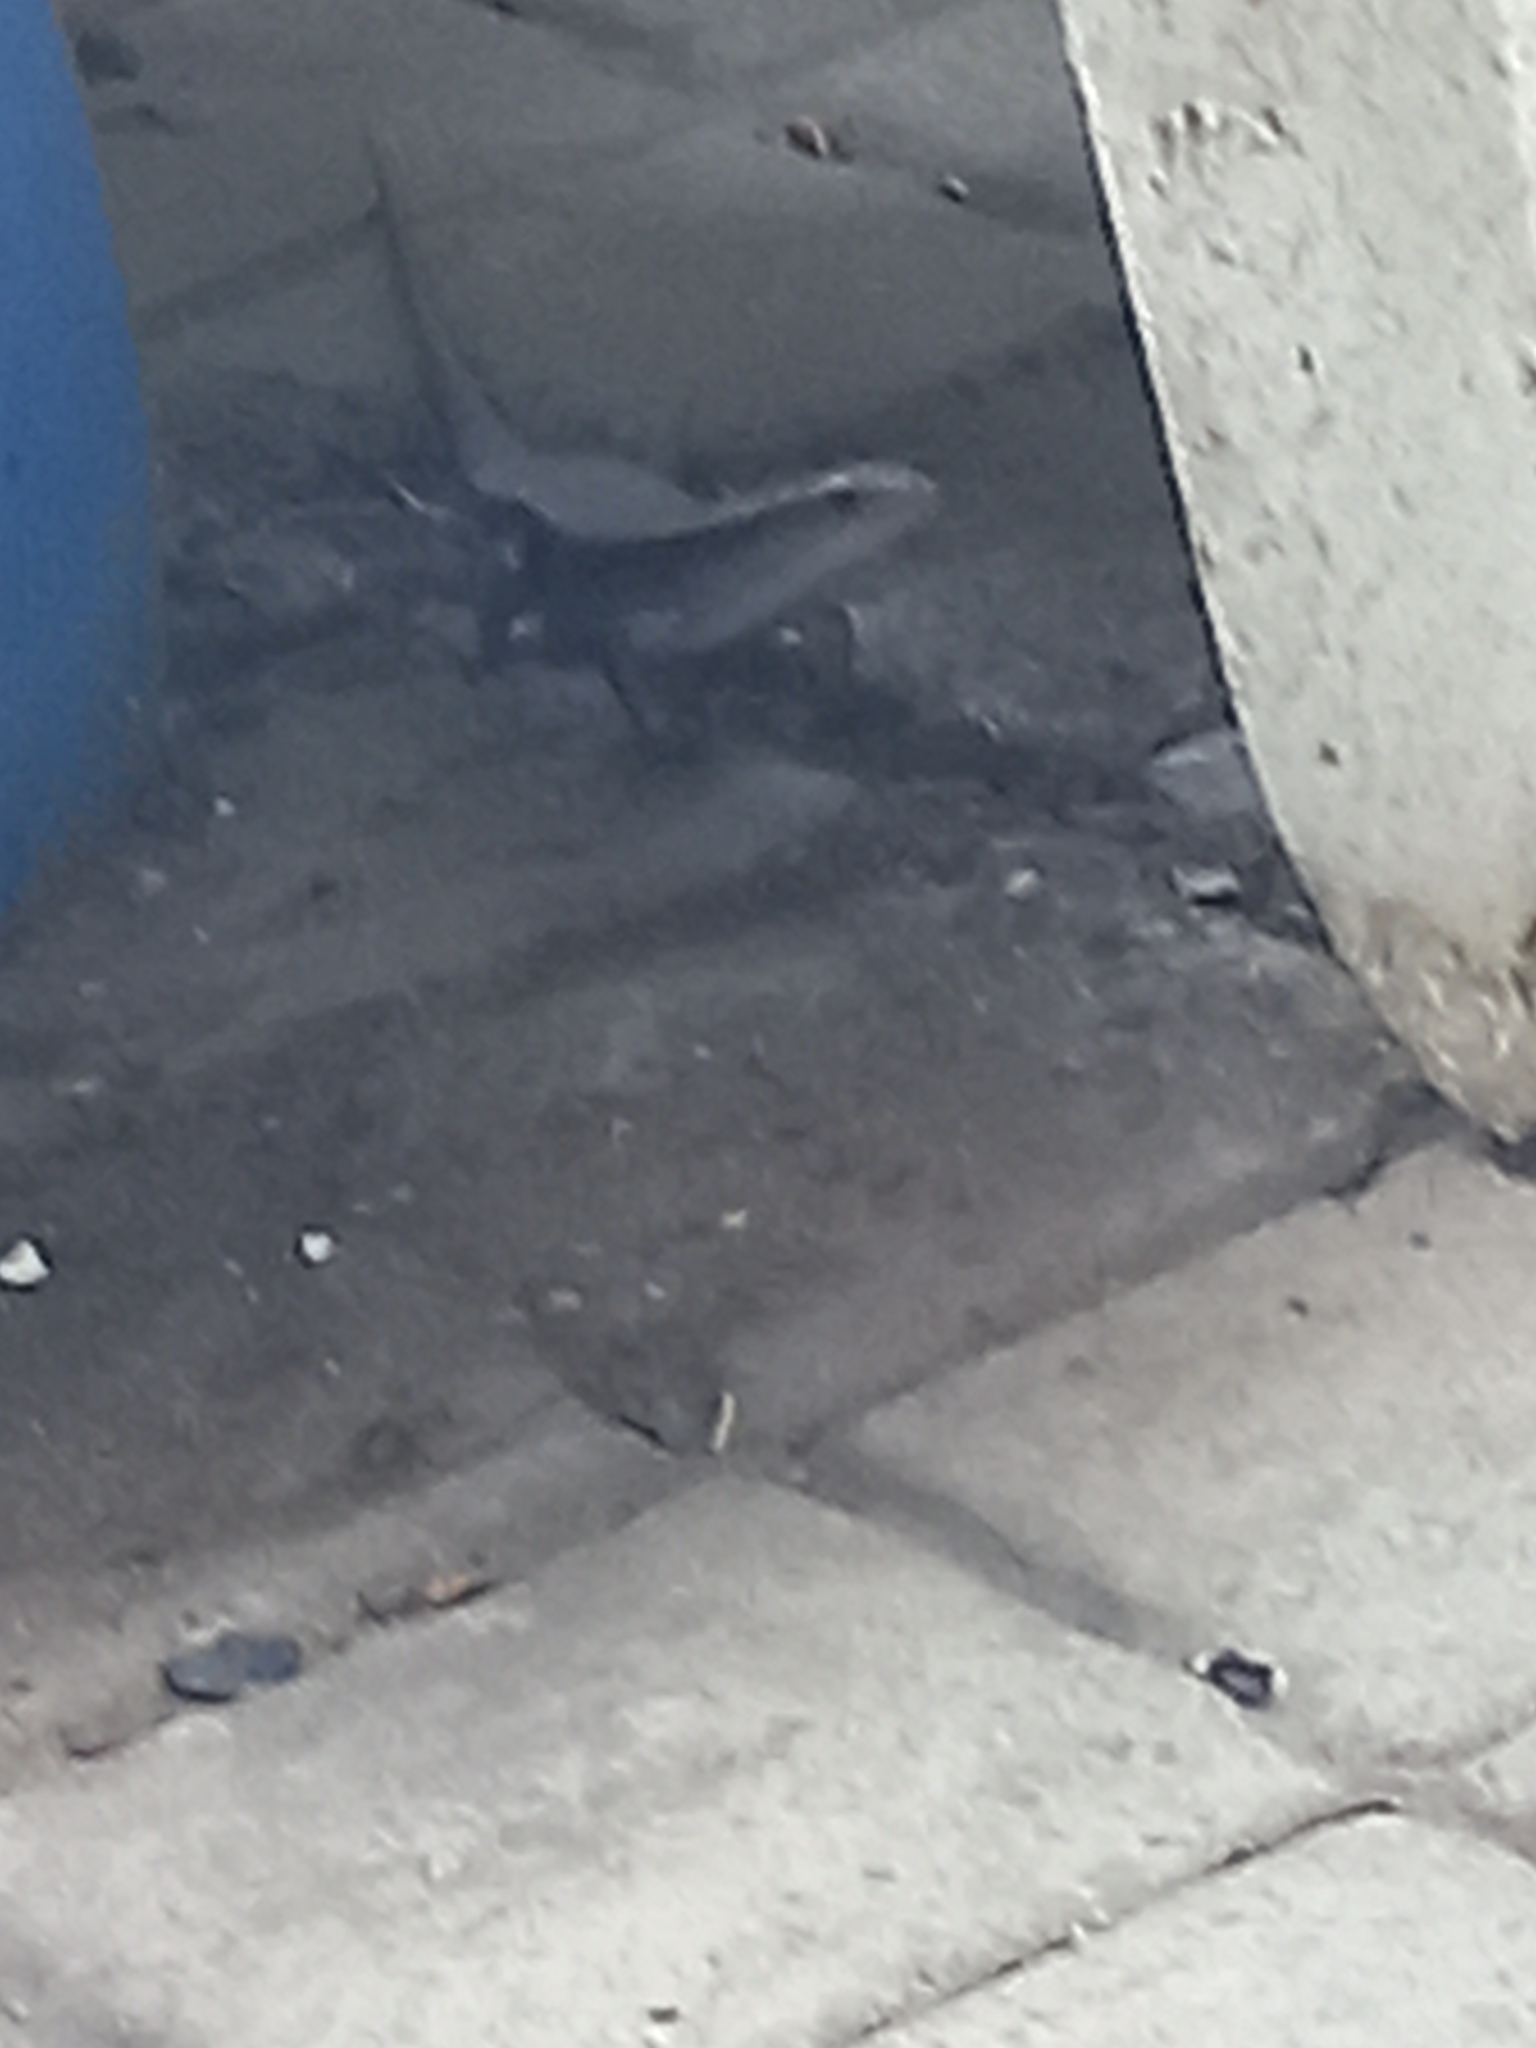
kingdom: Animalia
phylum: Chordata
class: Squamata
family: Scincidae
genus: Eutropis
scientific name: Eutropis multifasciata
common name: Common mabuya
